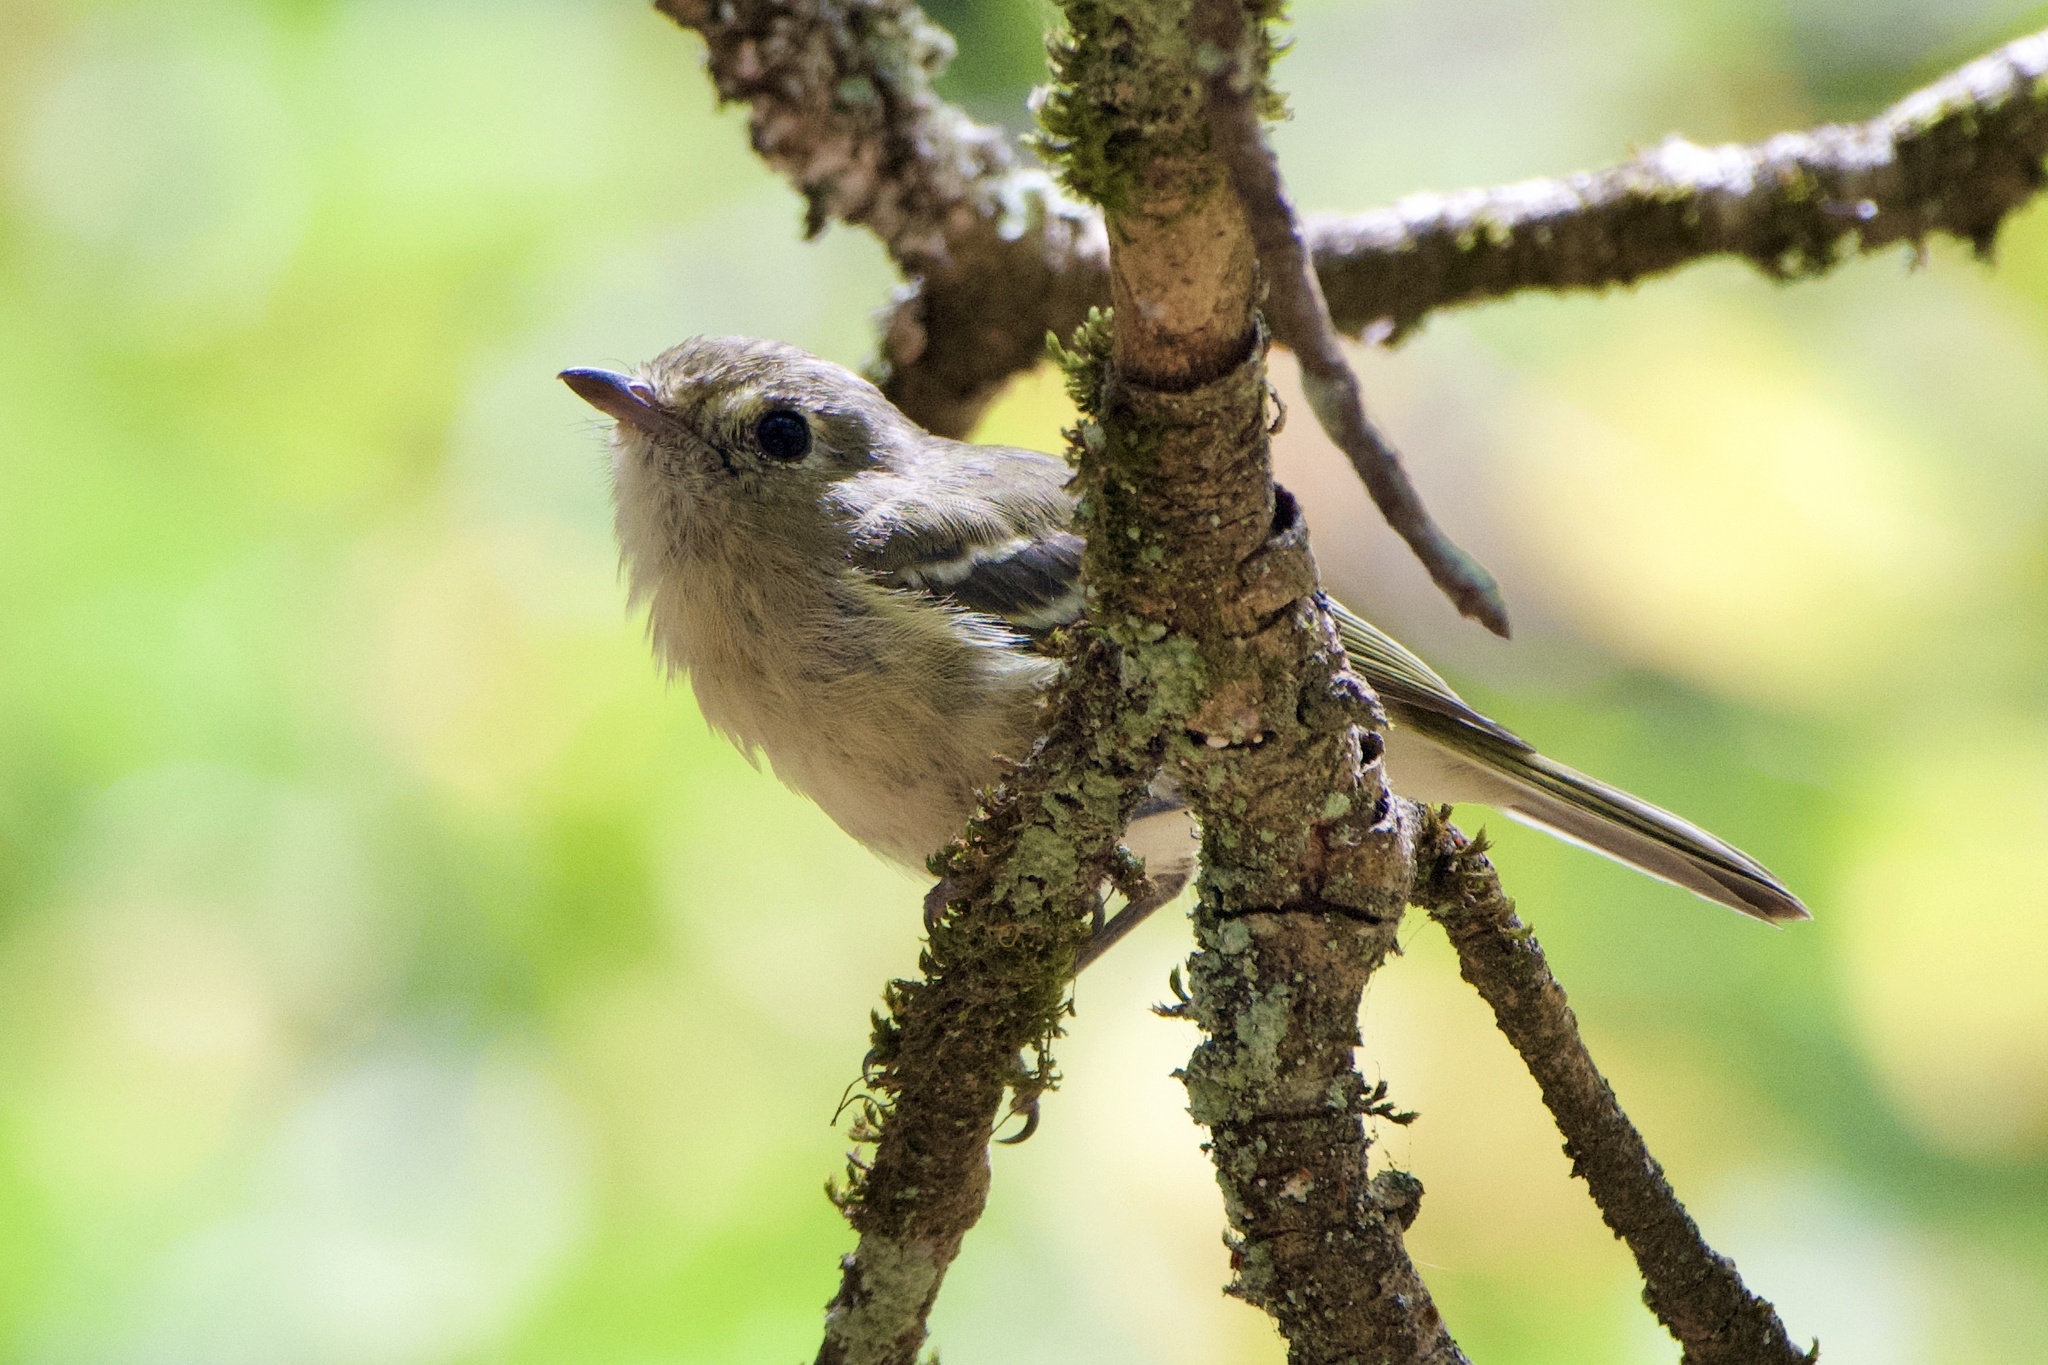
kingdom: Animalia
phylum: Chordata
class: Aves
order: Passeriformes
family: Vireonidae
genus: Vireo
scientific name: Vireo huttoni
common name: Hutton's vireo
